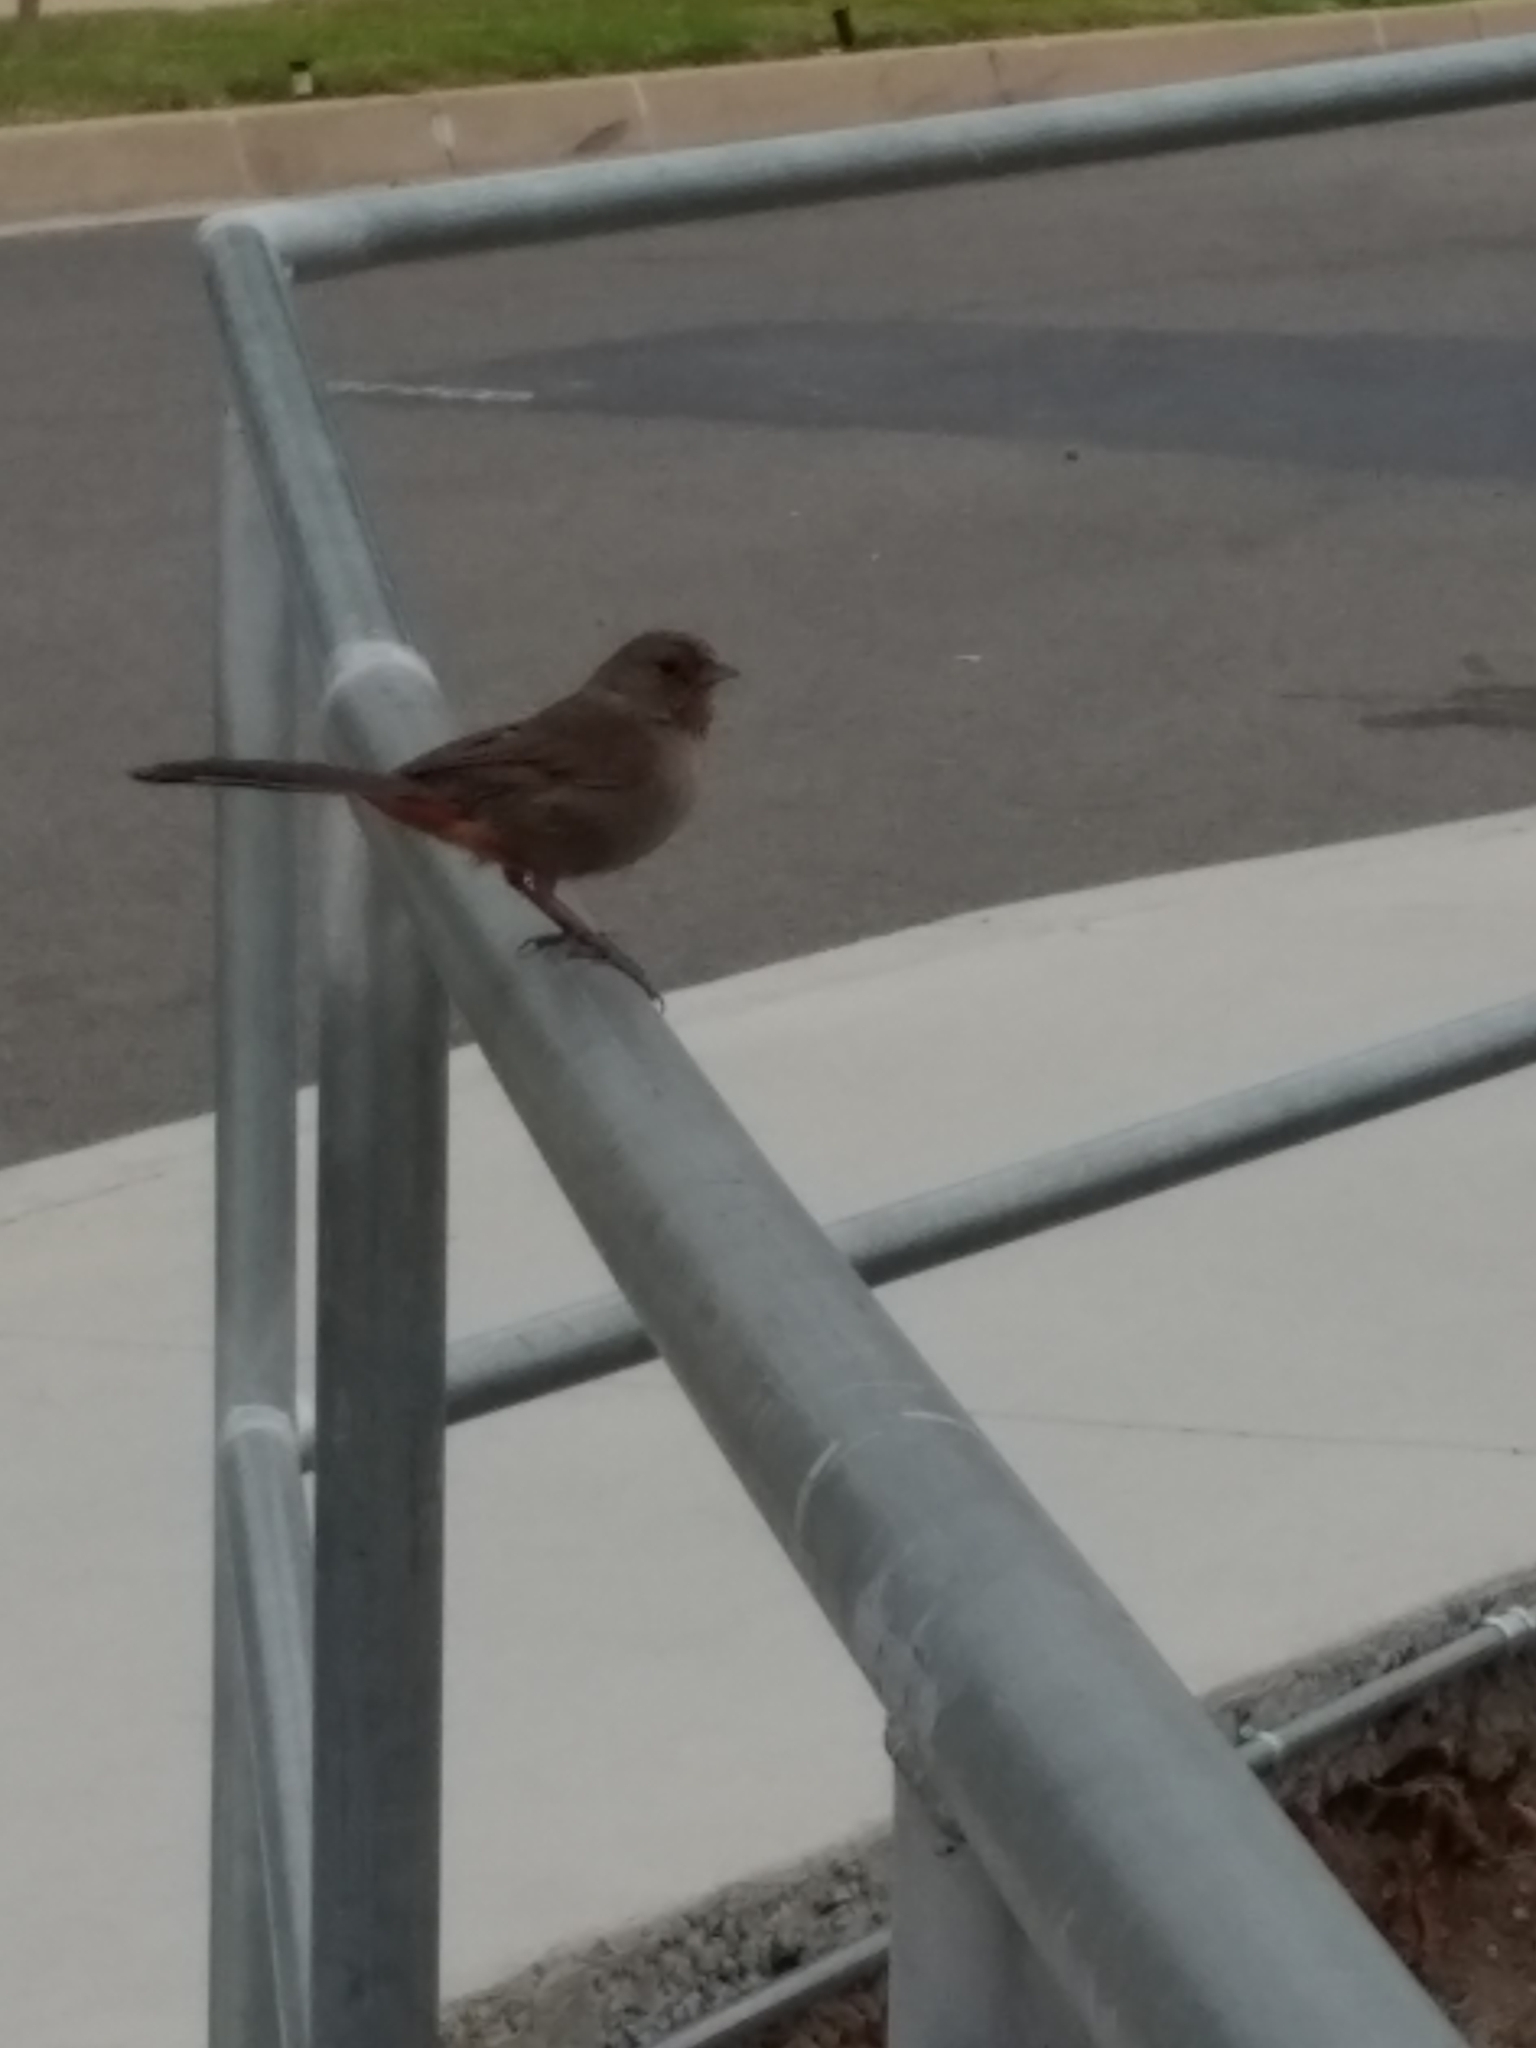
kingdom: Animalia
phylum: Chordata
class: Aves
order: Passeriformes
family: Passerellidae
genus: Melozone
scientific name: Melozone crissalis
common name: California towhee
